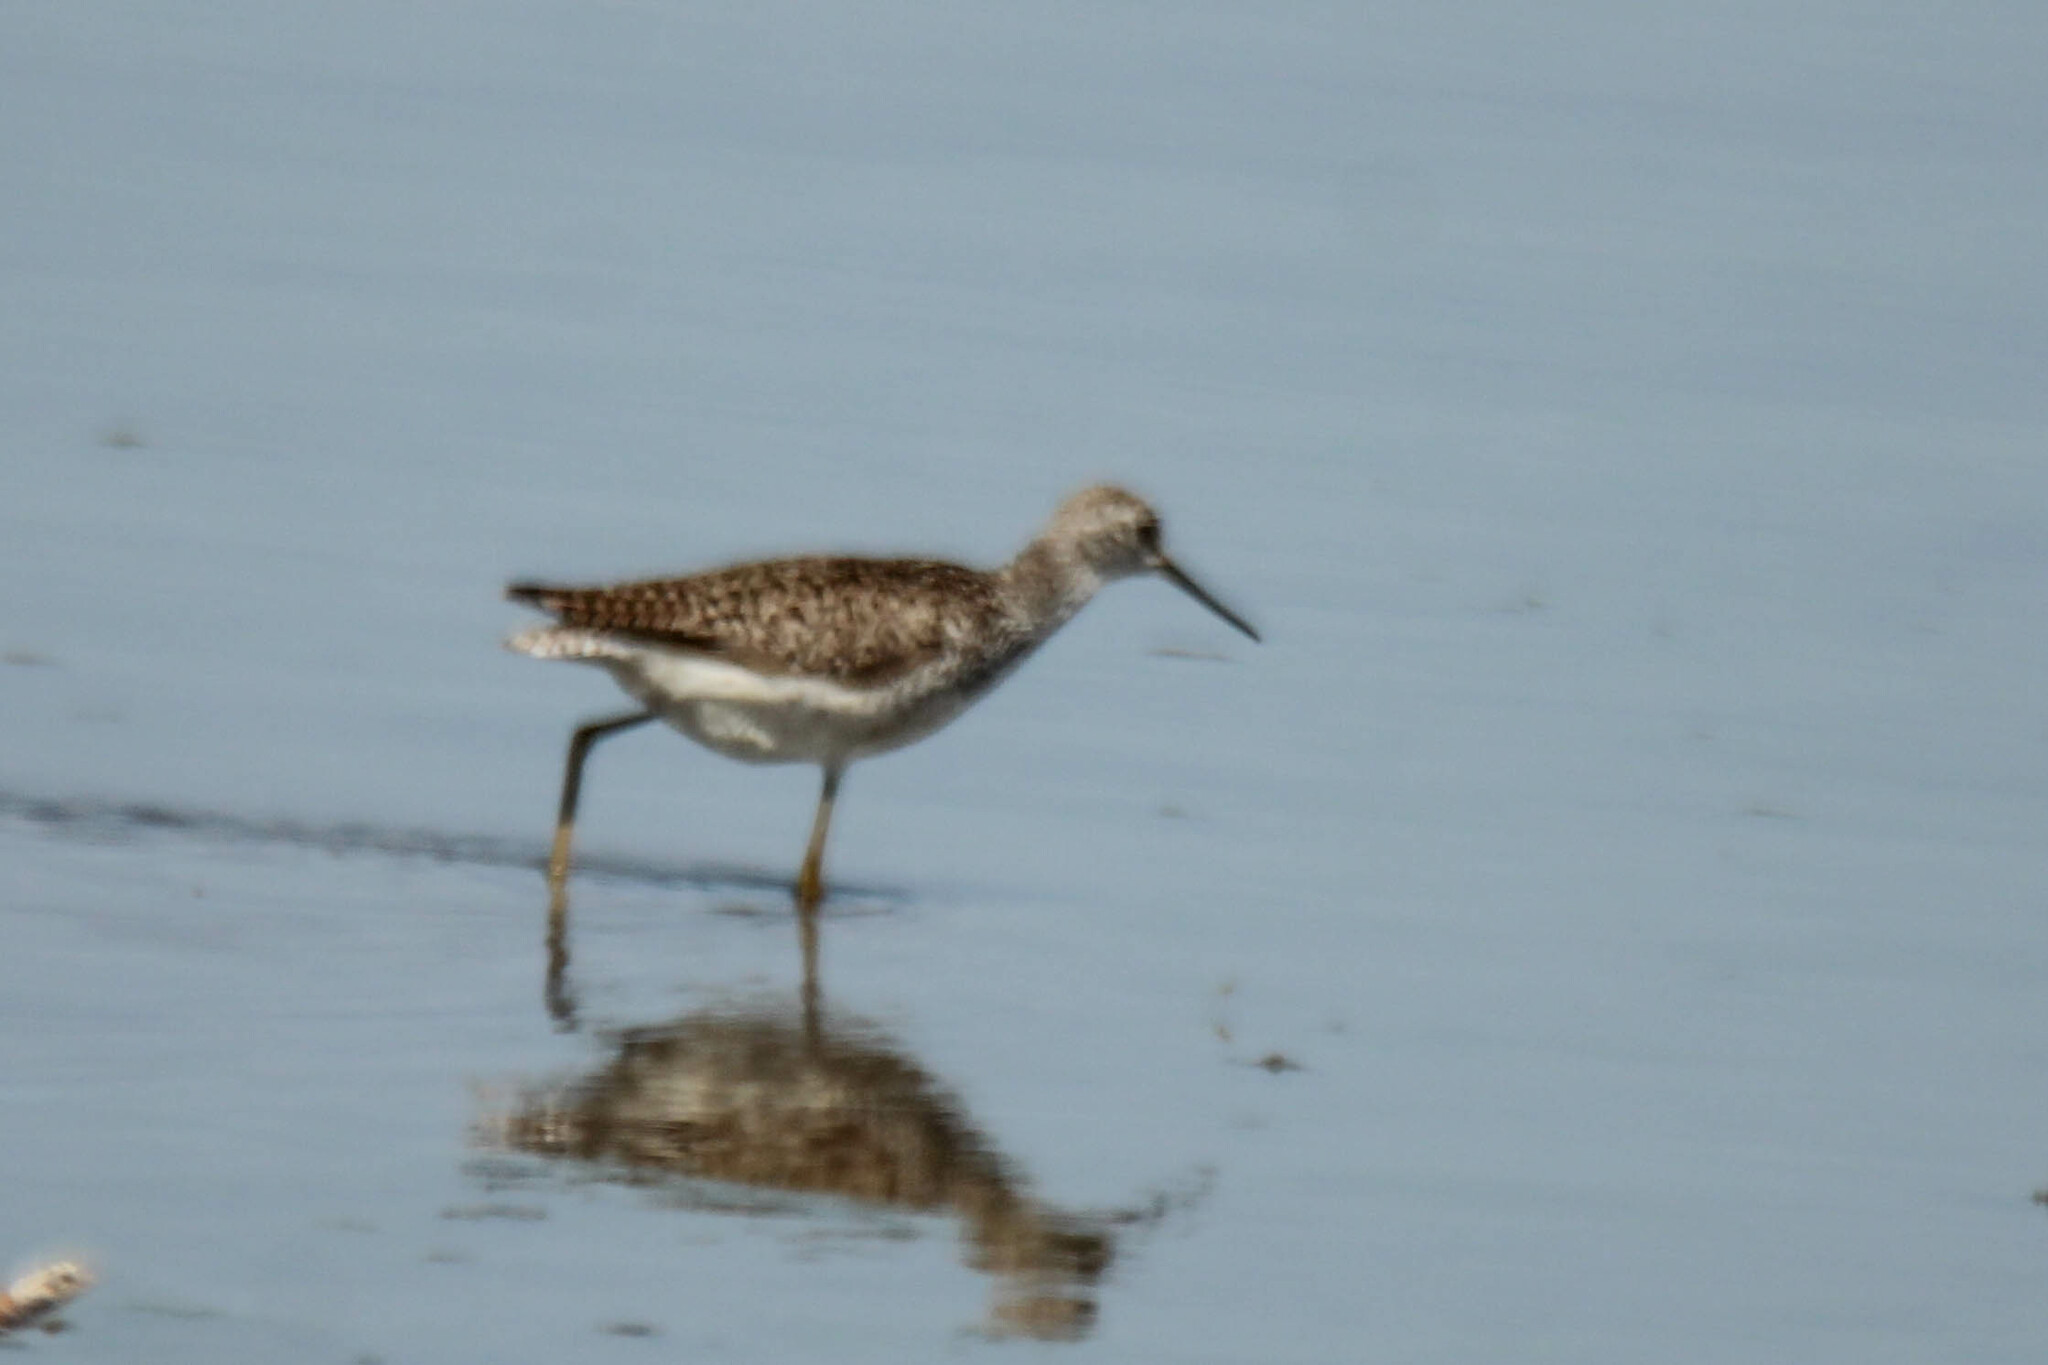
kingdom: Animalia
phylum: Chordata
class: Aves
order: Charadriiformes
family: Scolopacidae
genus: Tringa
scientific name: Tringa stagnatilis
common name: Marsh sandpiper
